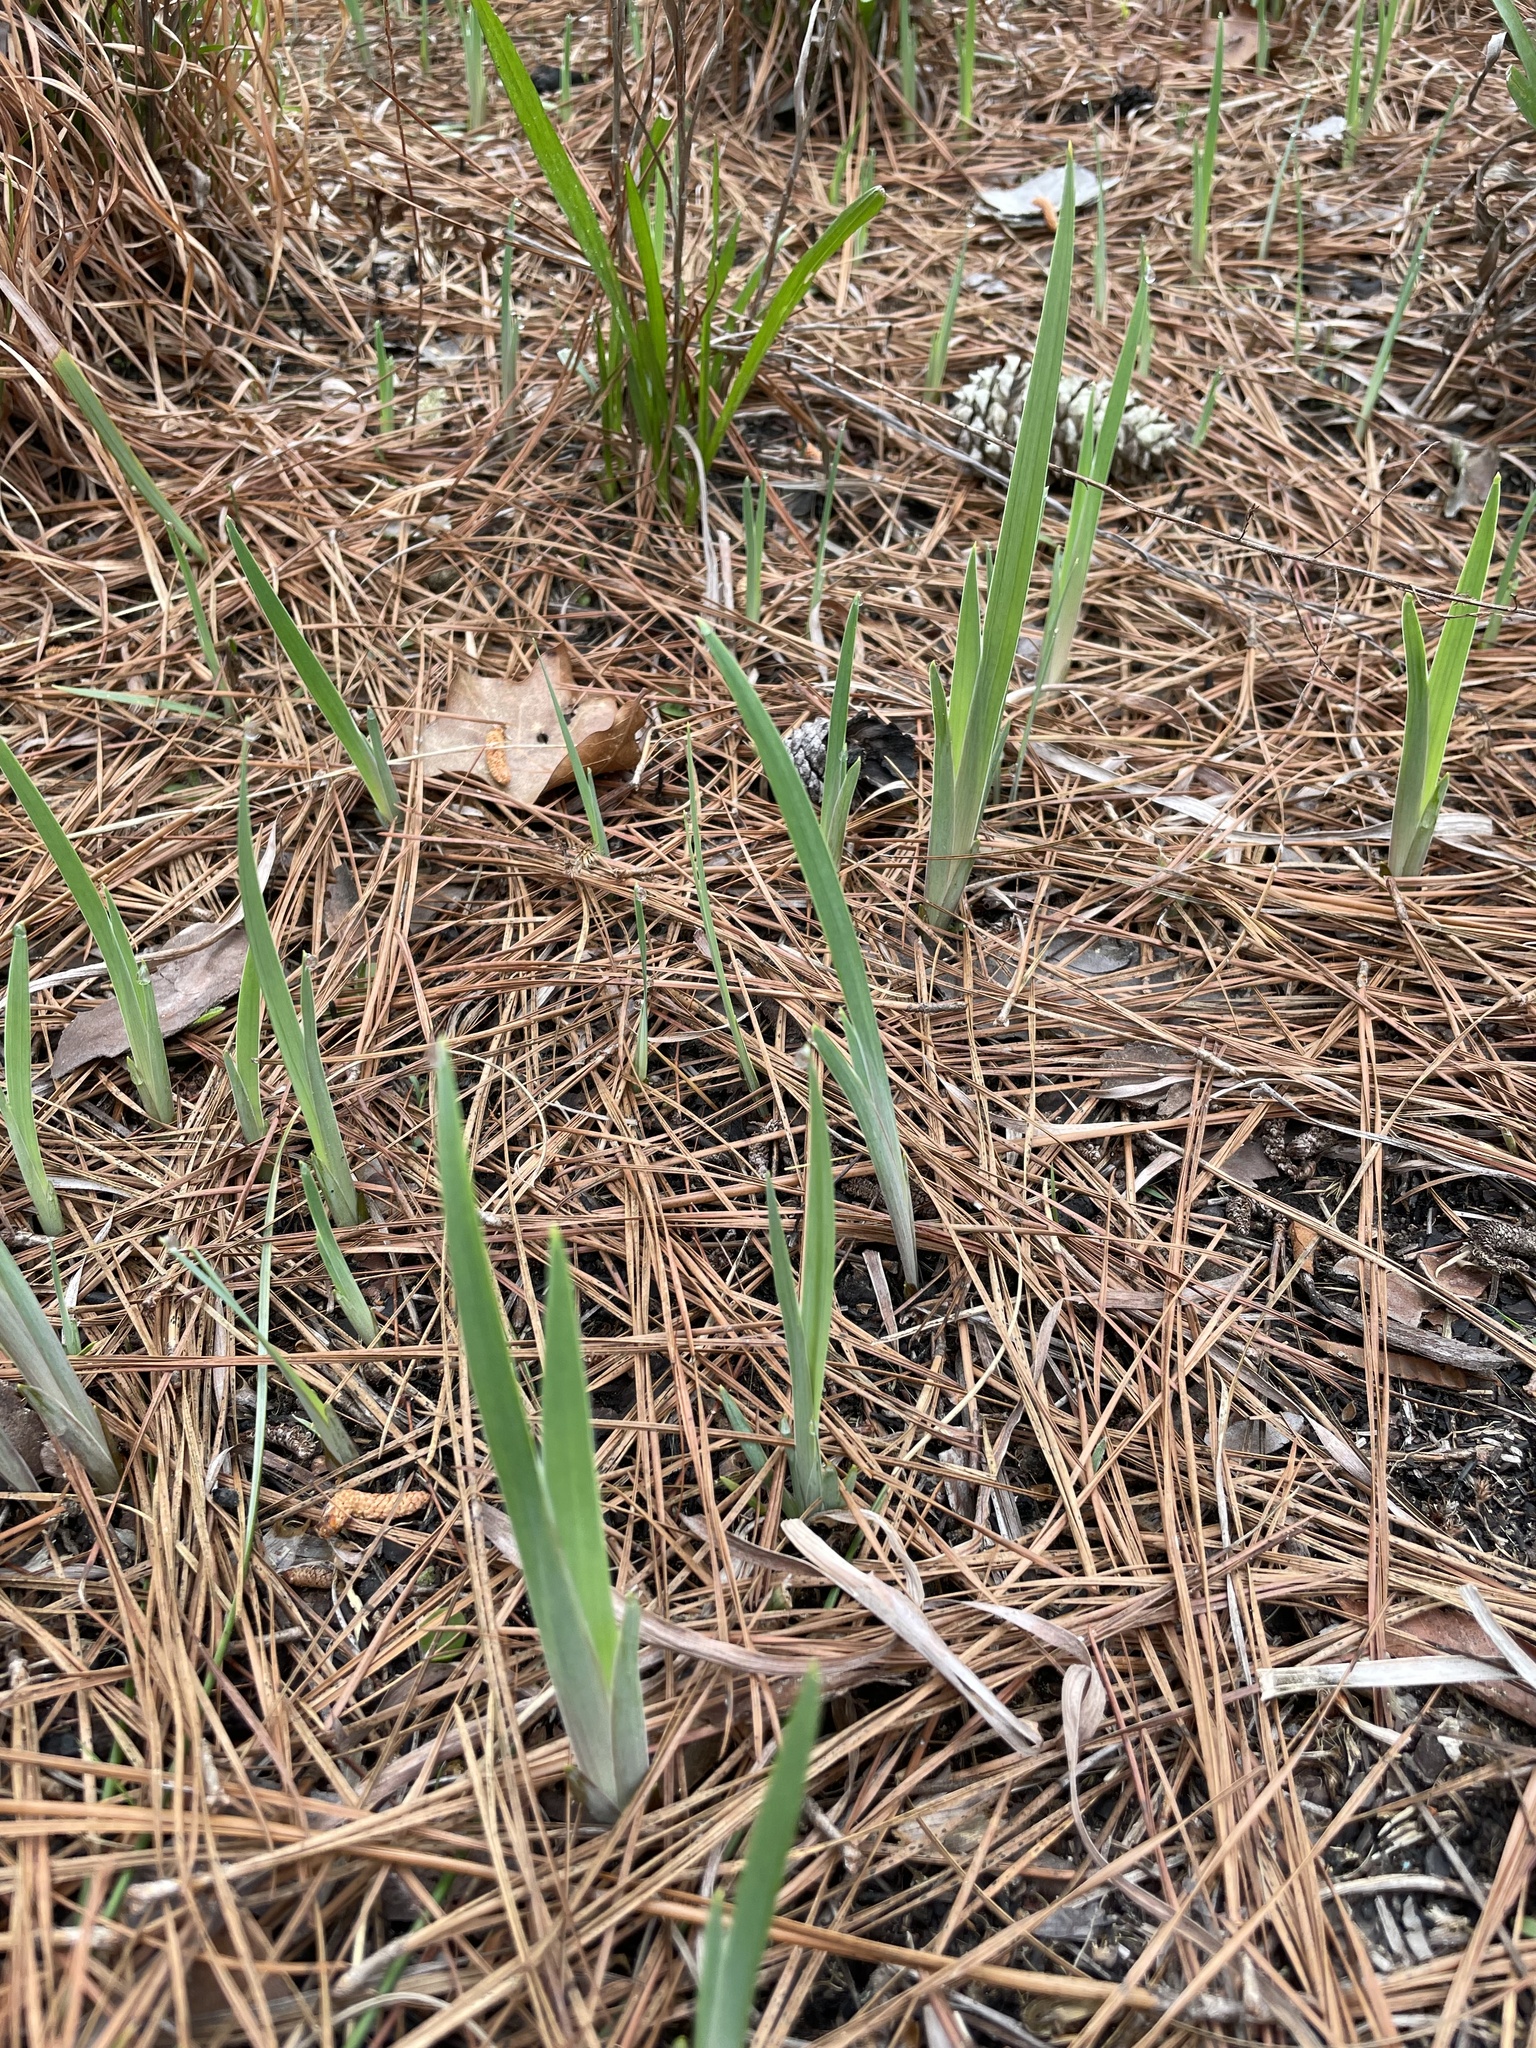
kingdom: Plantae
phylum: Tracheophyta
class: Liliopsida
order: Asparagales
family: Iridaceae
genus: Iris
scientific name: Iris verna
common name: Dwarf iris
